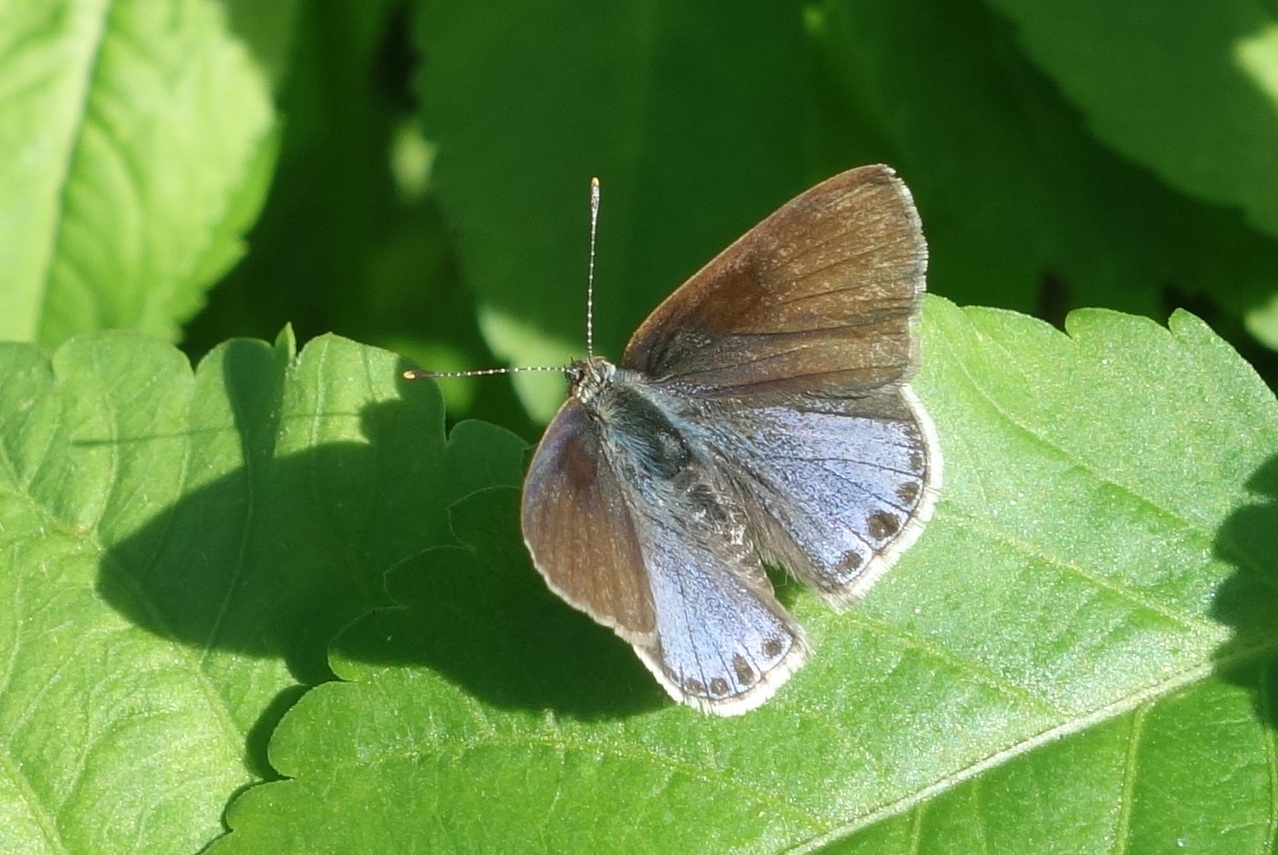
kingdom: Animalia
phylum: Arthropoda
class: Insecta
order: Lepidoptera
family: Lycaenidae
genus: Zizina
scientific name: Zizina otis
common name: Lesser grass blue
